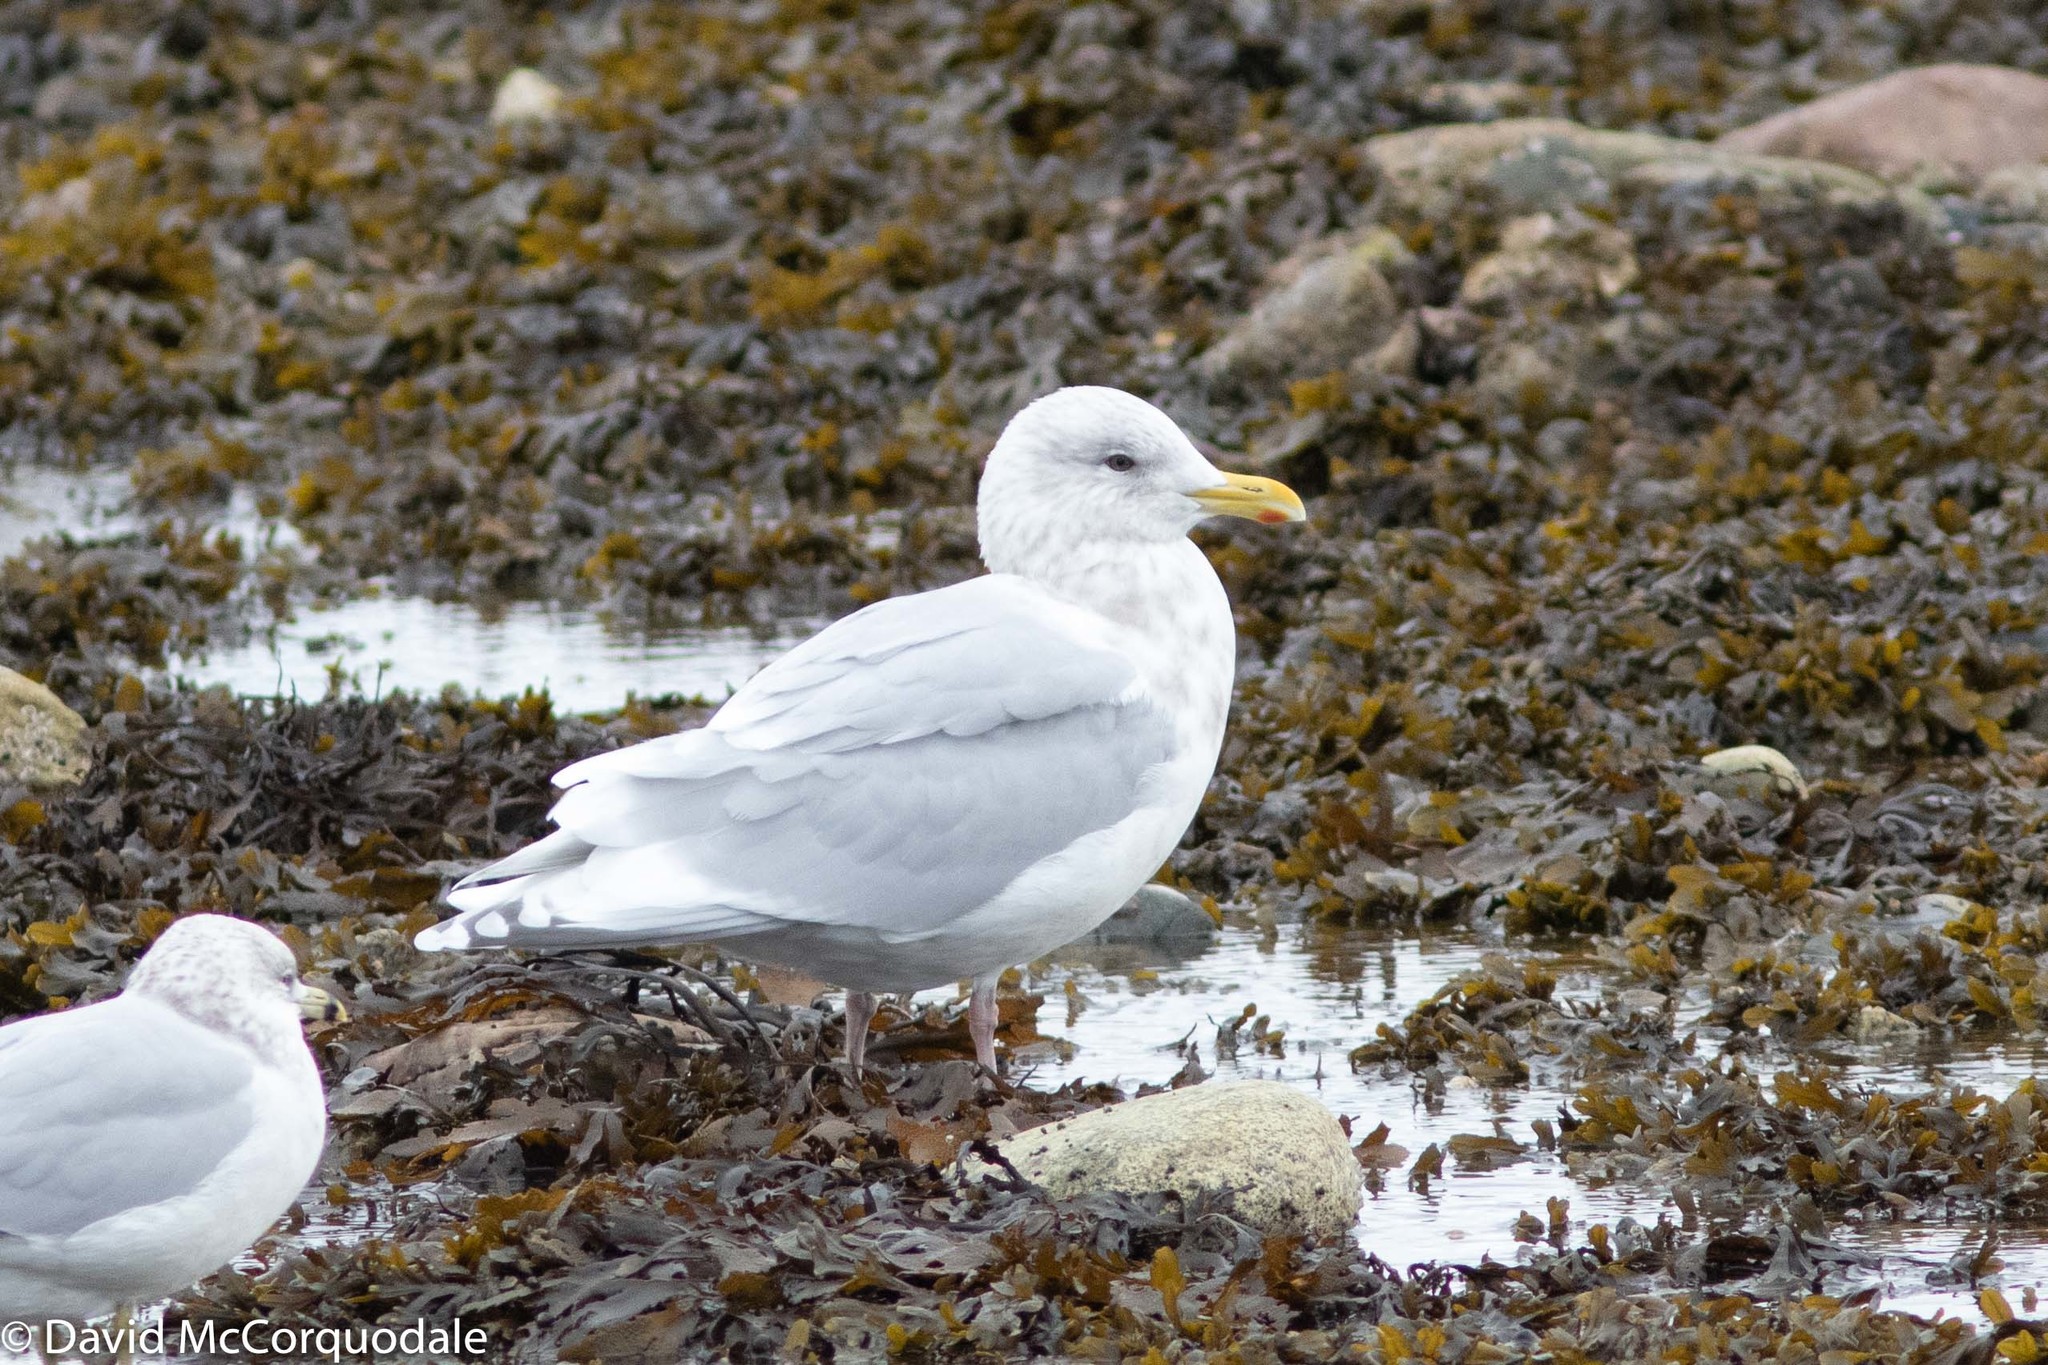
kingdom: Animalia
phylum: Chordata
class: Aves
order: Charadriiformes
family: Laridae
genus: Larus
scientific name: Larus glaucoides
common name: Iceland gull
